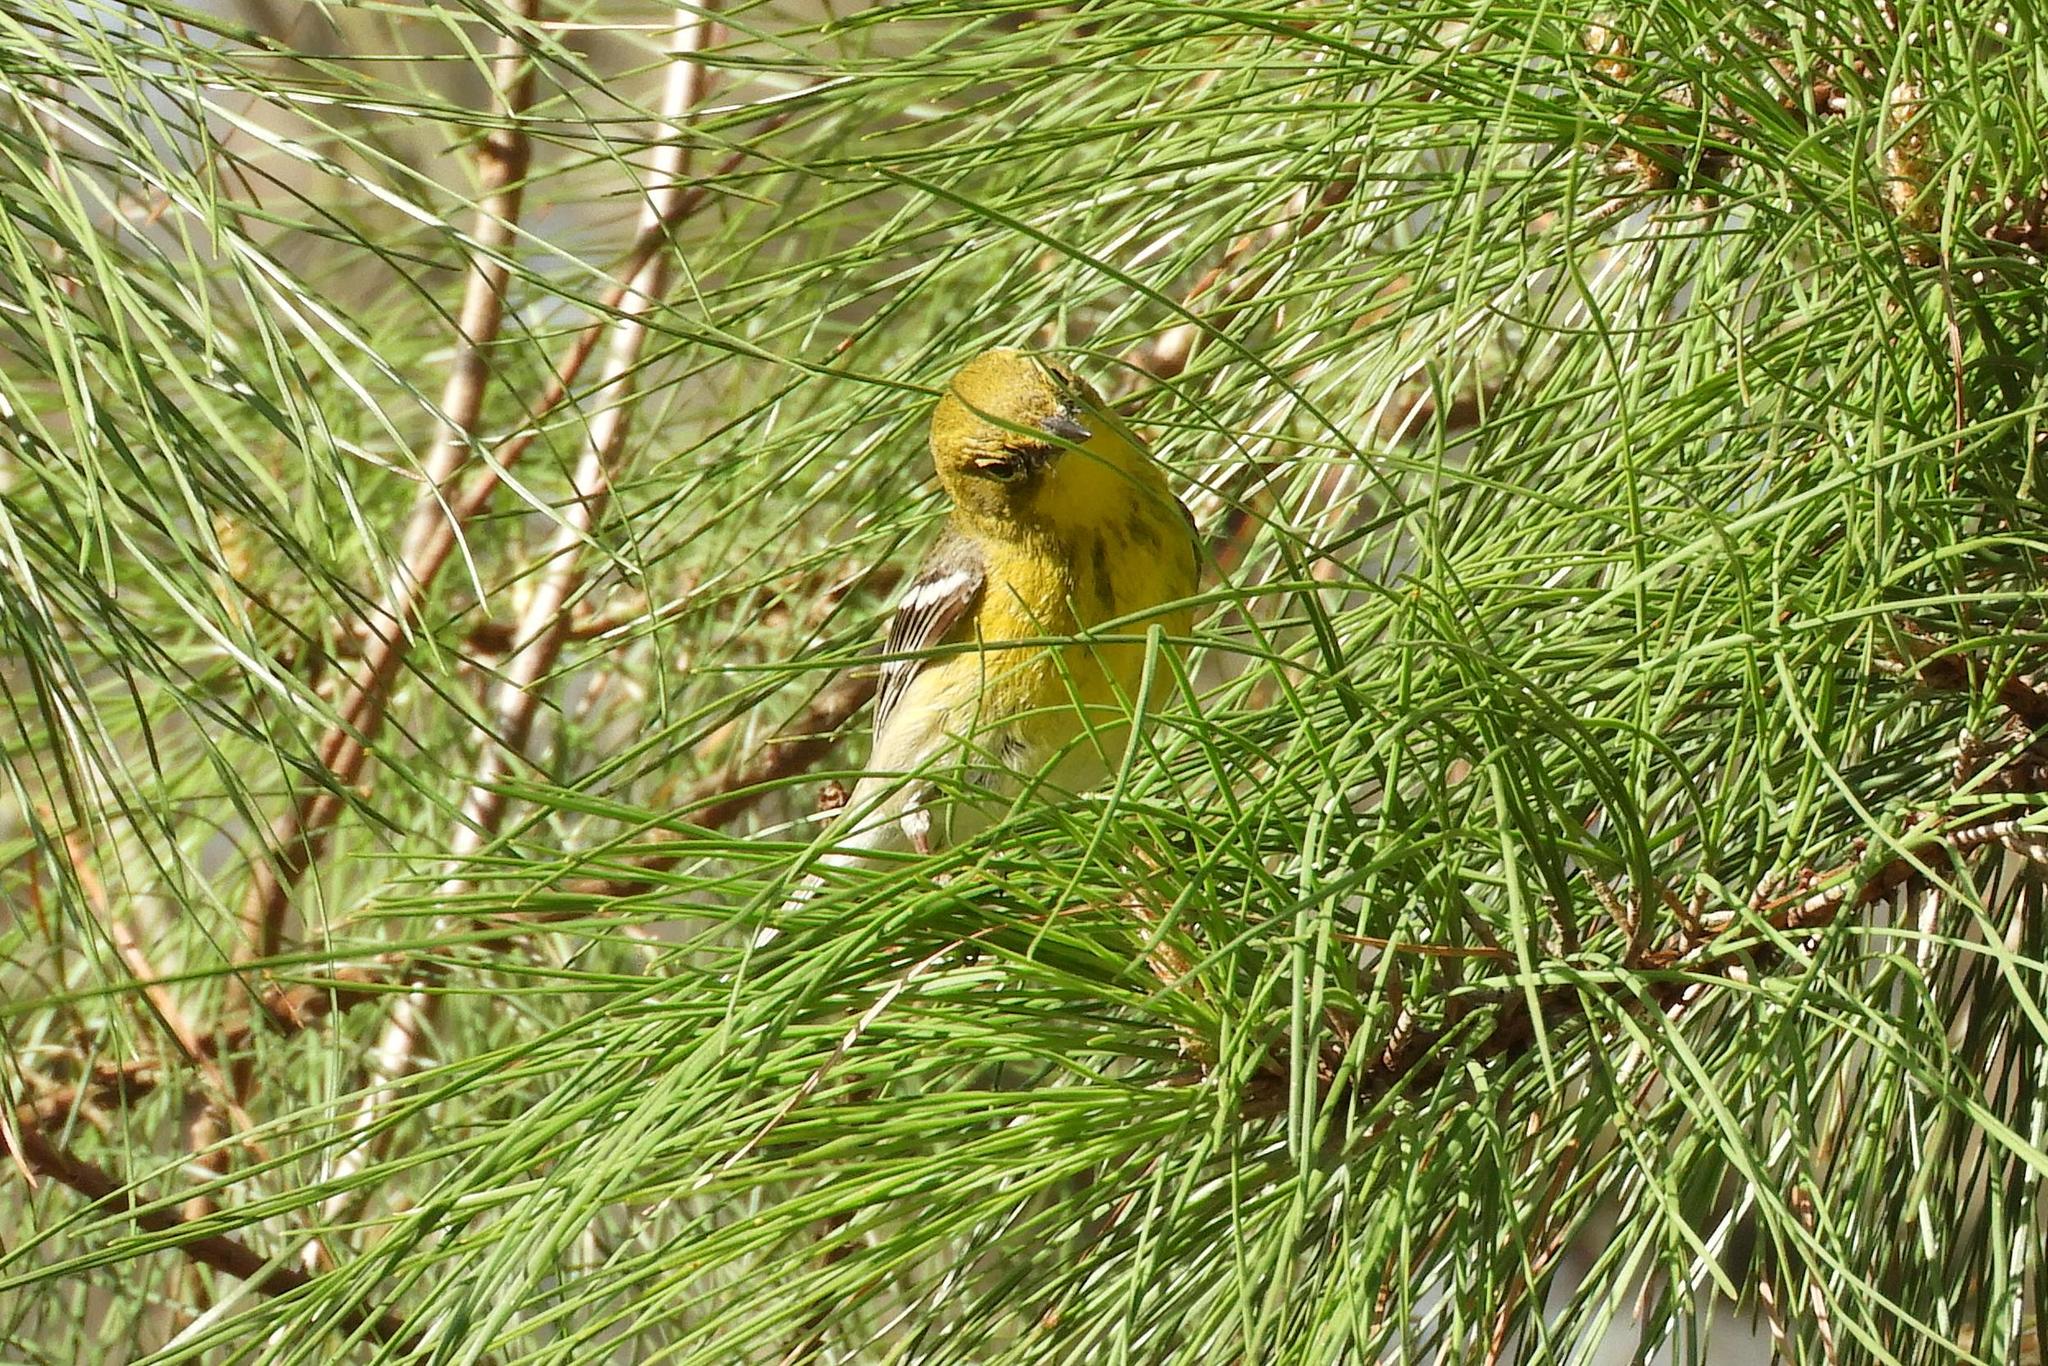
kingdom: Animalia
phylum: Chordata
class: Aves
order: Passeriformes
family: Parulidae
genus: Setophaga
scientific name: Setophaga pinus
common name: Pine warbler
